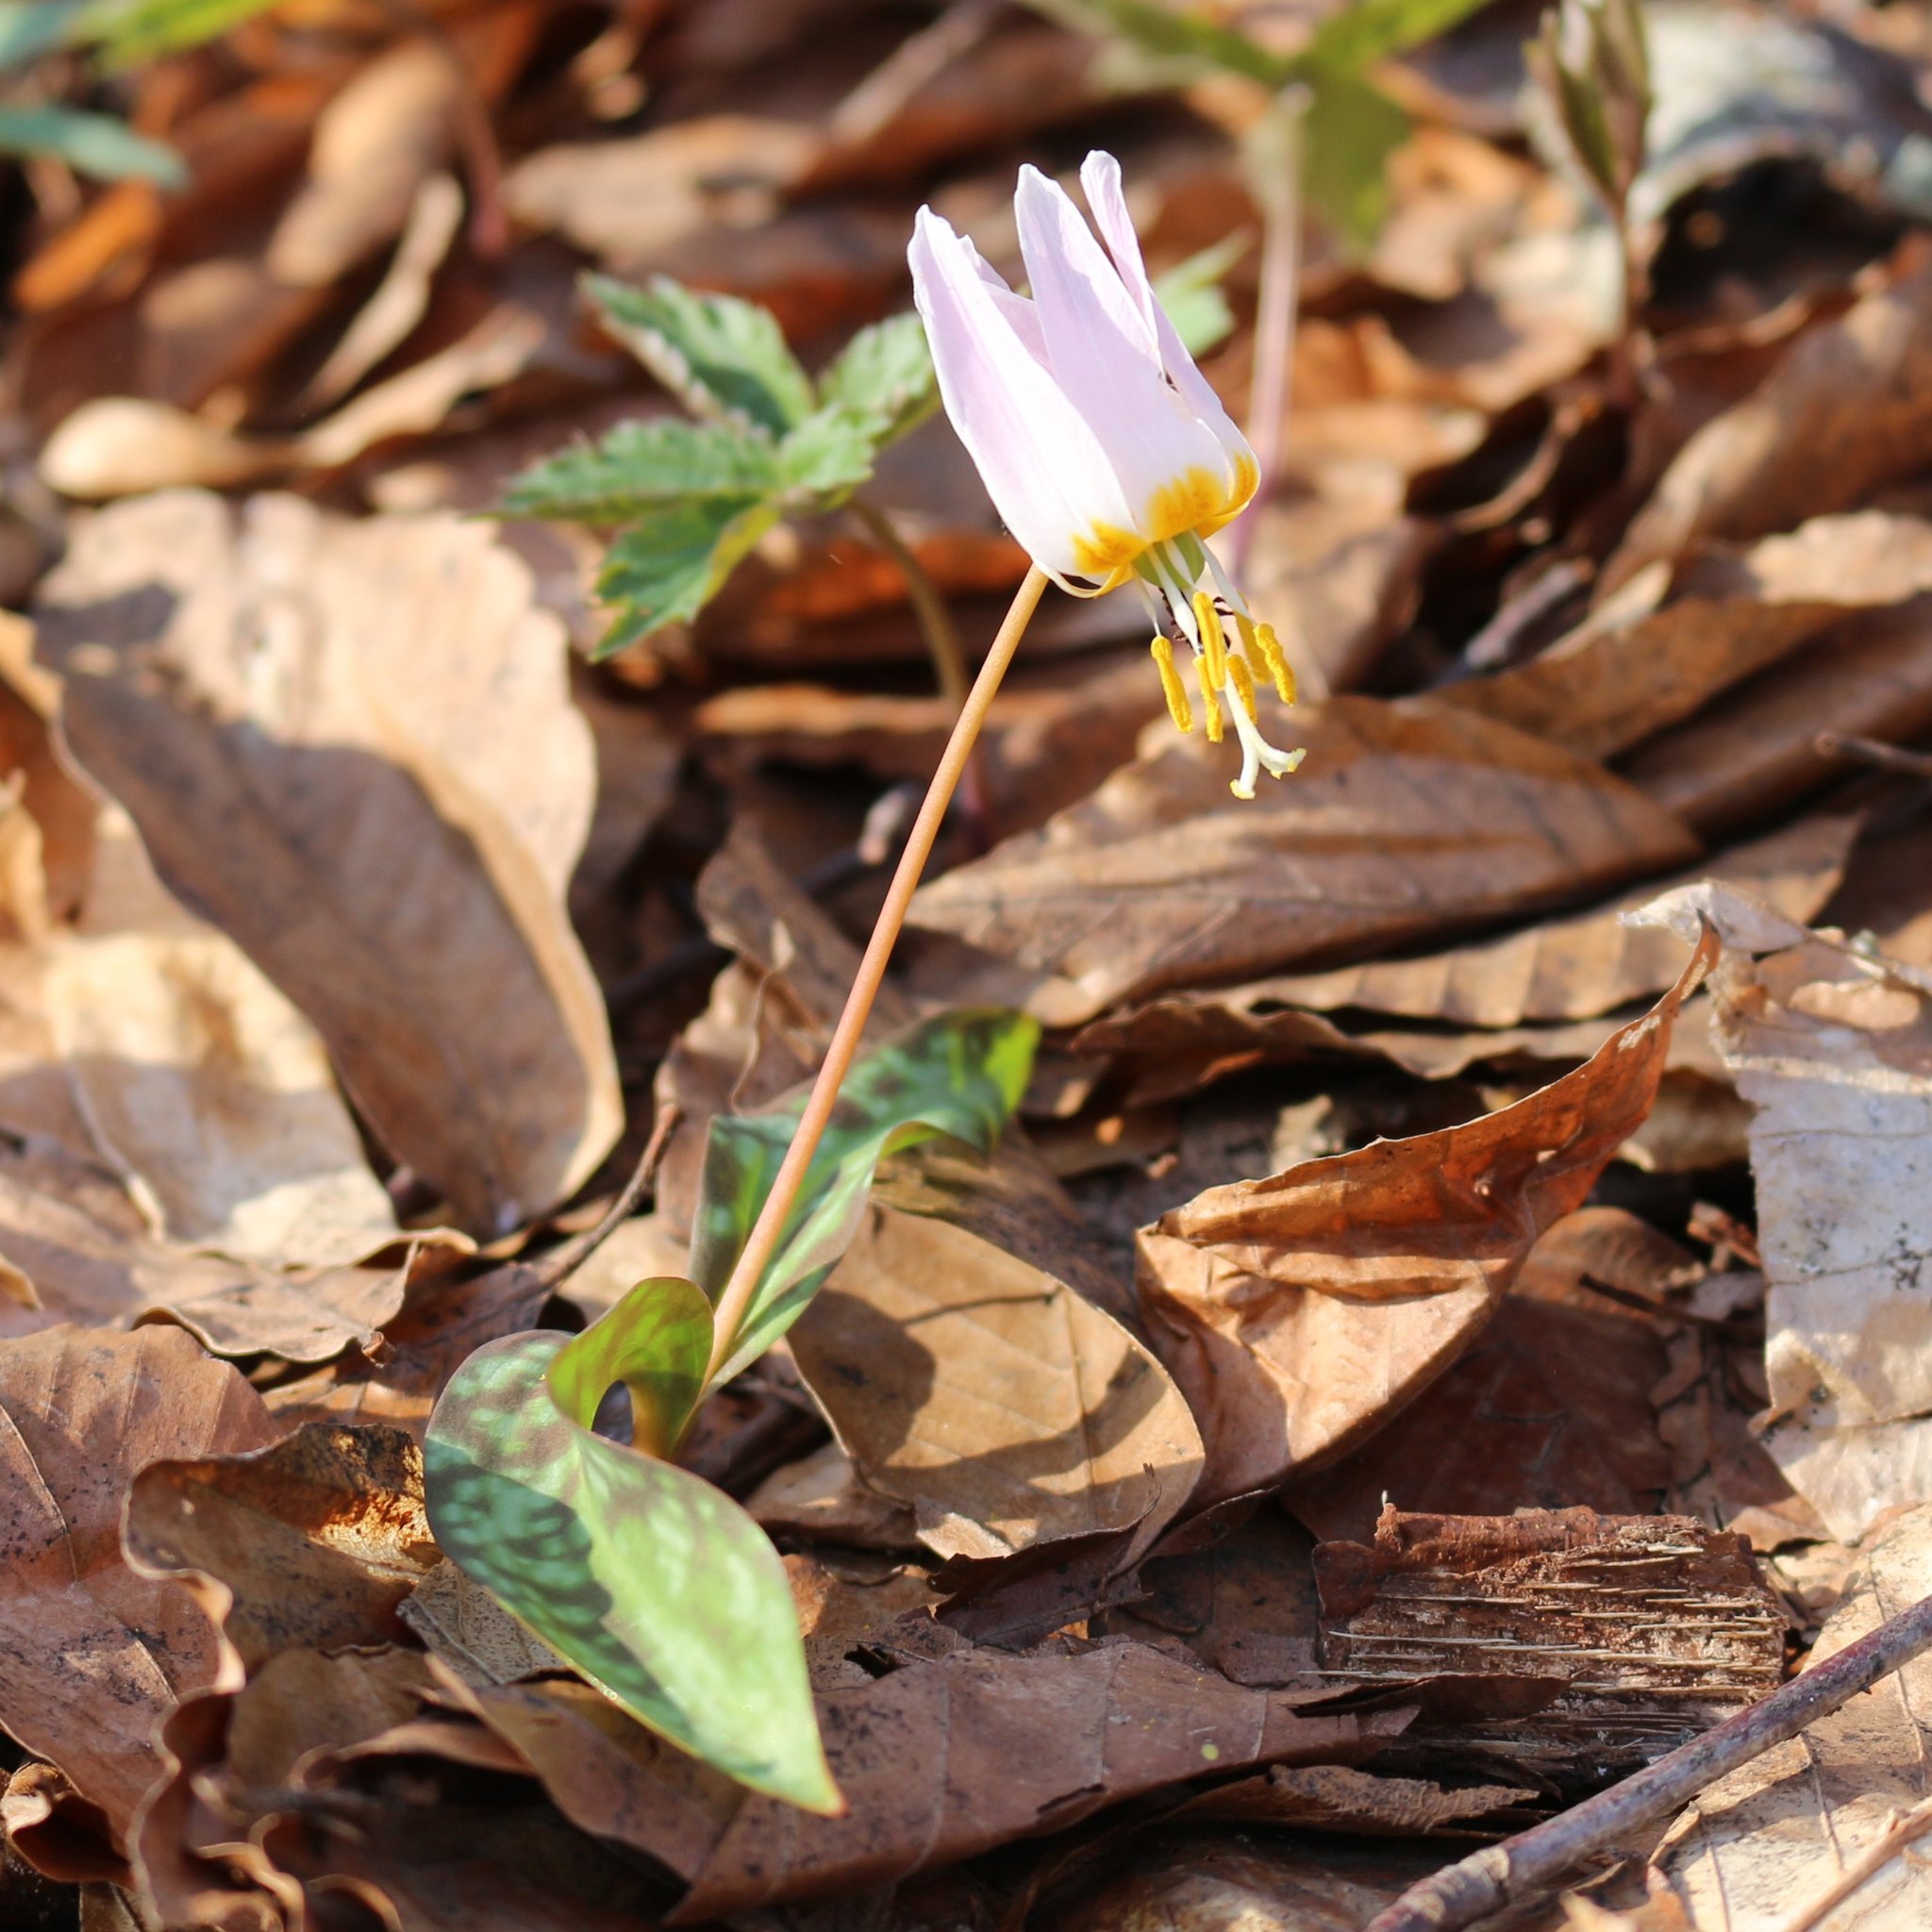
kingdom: Plantae
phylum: Tracheophyta
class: Liliopsida
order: Liliales
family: Liliaceae
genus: Erythronium
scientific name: Erythronium caucasicum
